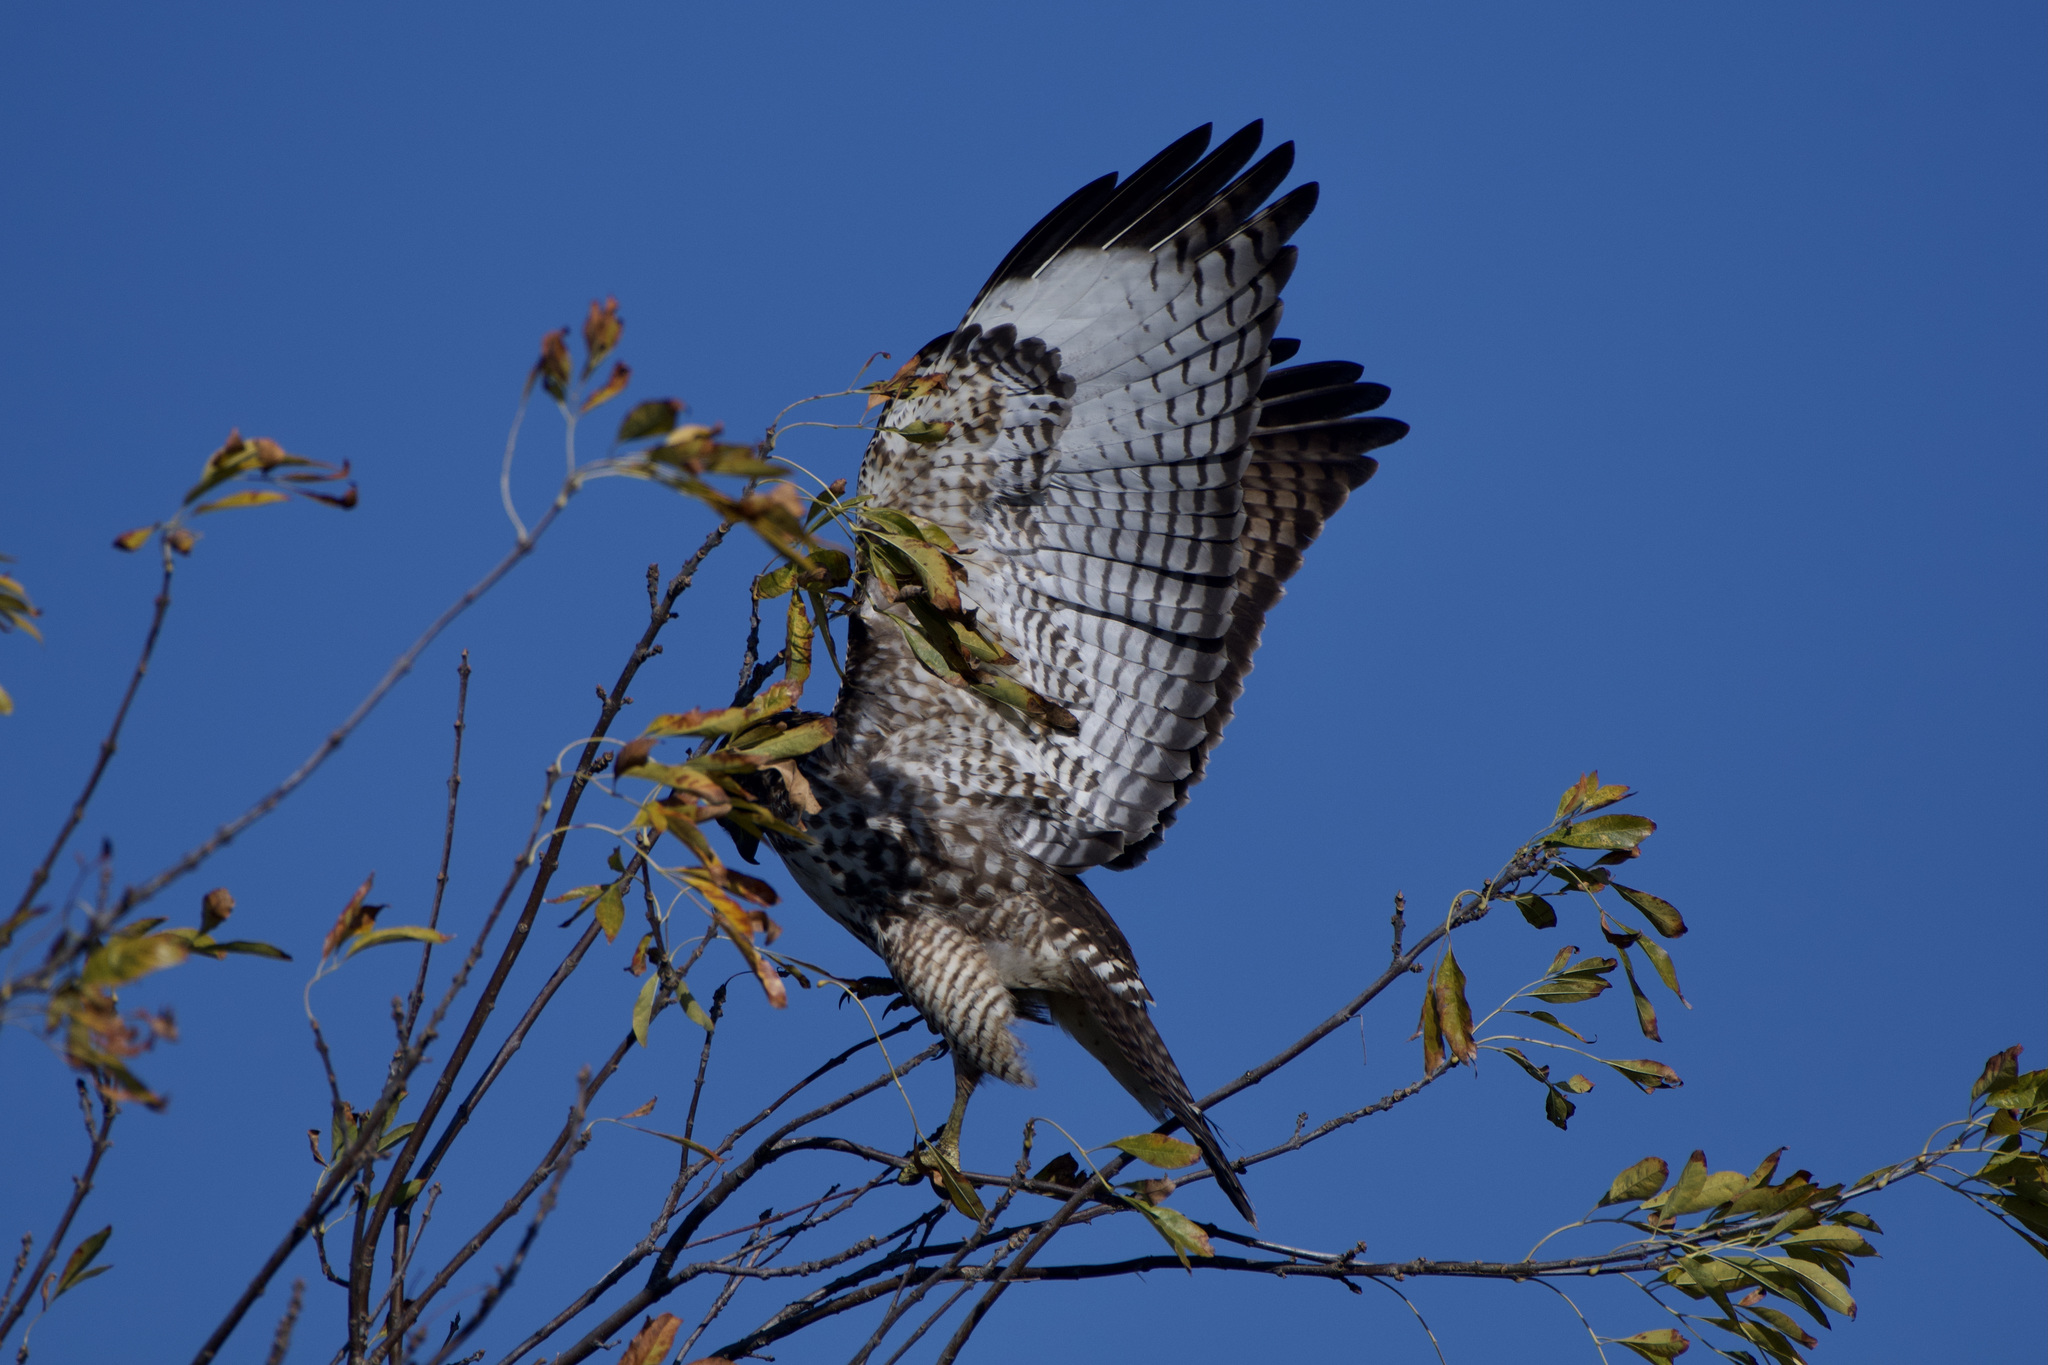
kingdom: Animalia
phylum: Chordata
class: Aves
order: Accipitriformes
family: Accipitridae
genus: Buteo
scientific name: Buteo jamaicensis
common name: Red-tailed hawk
